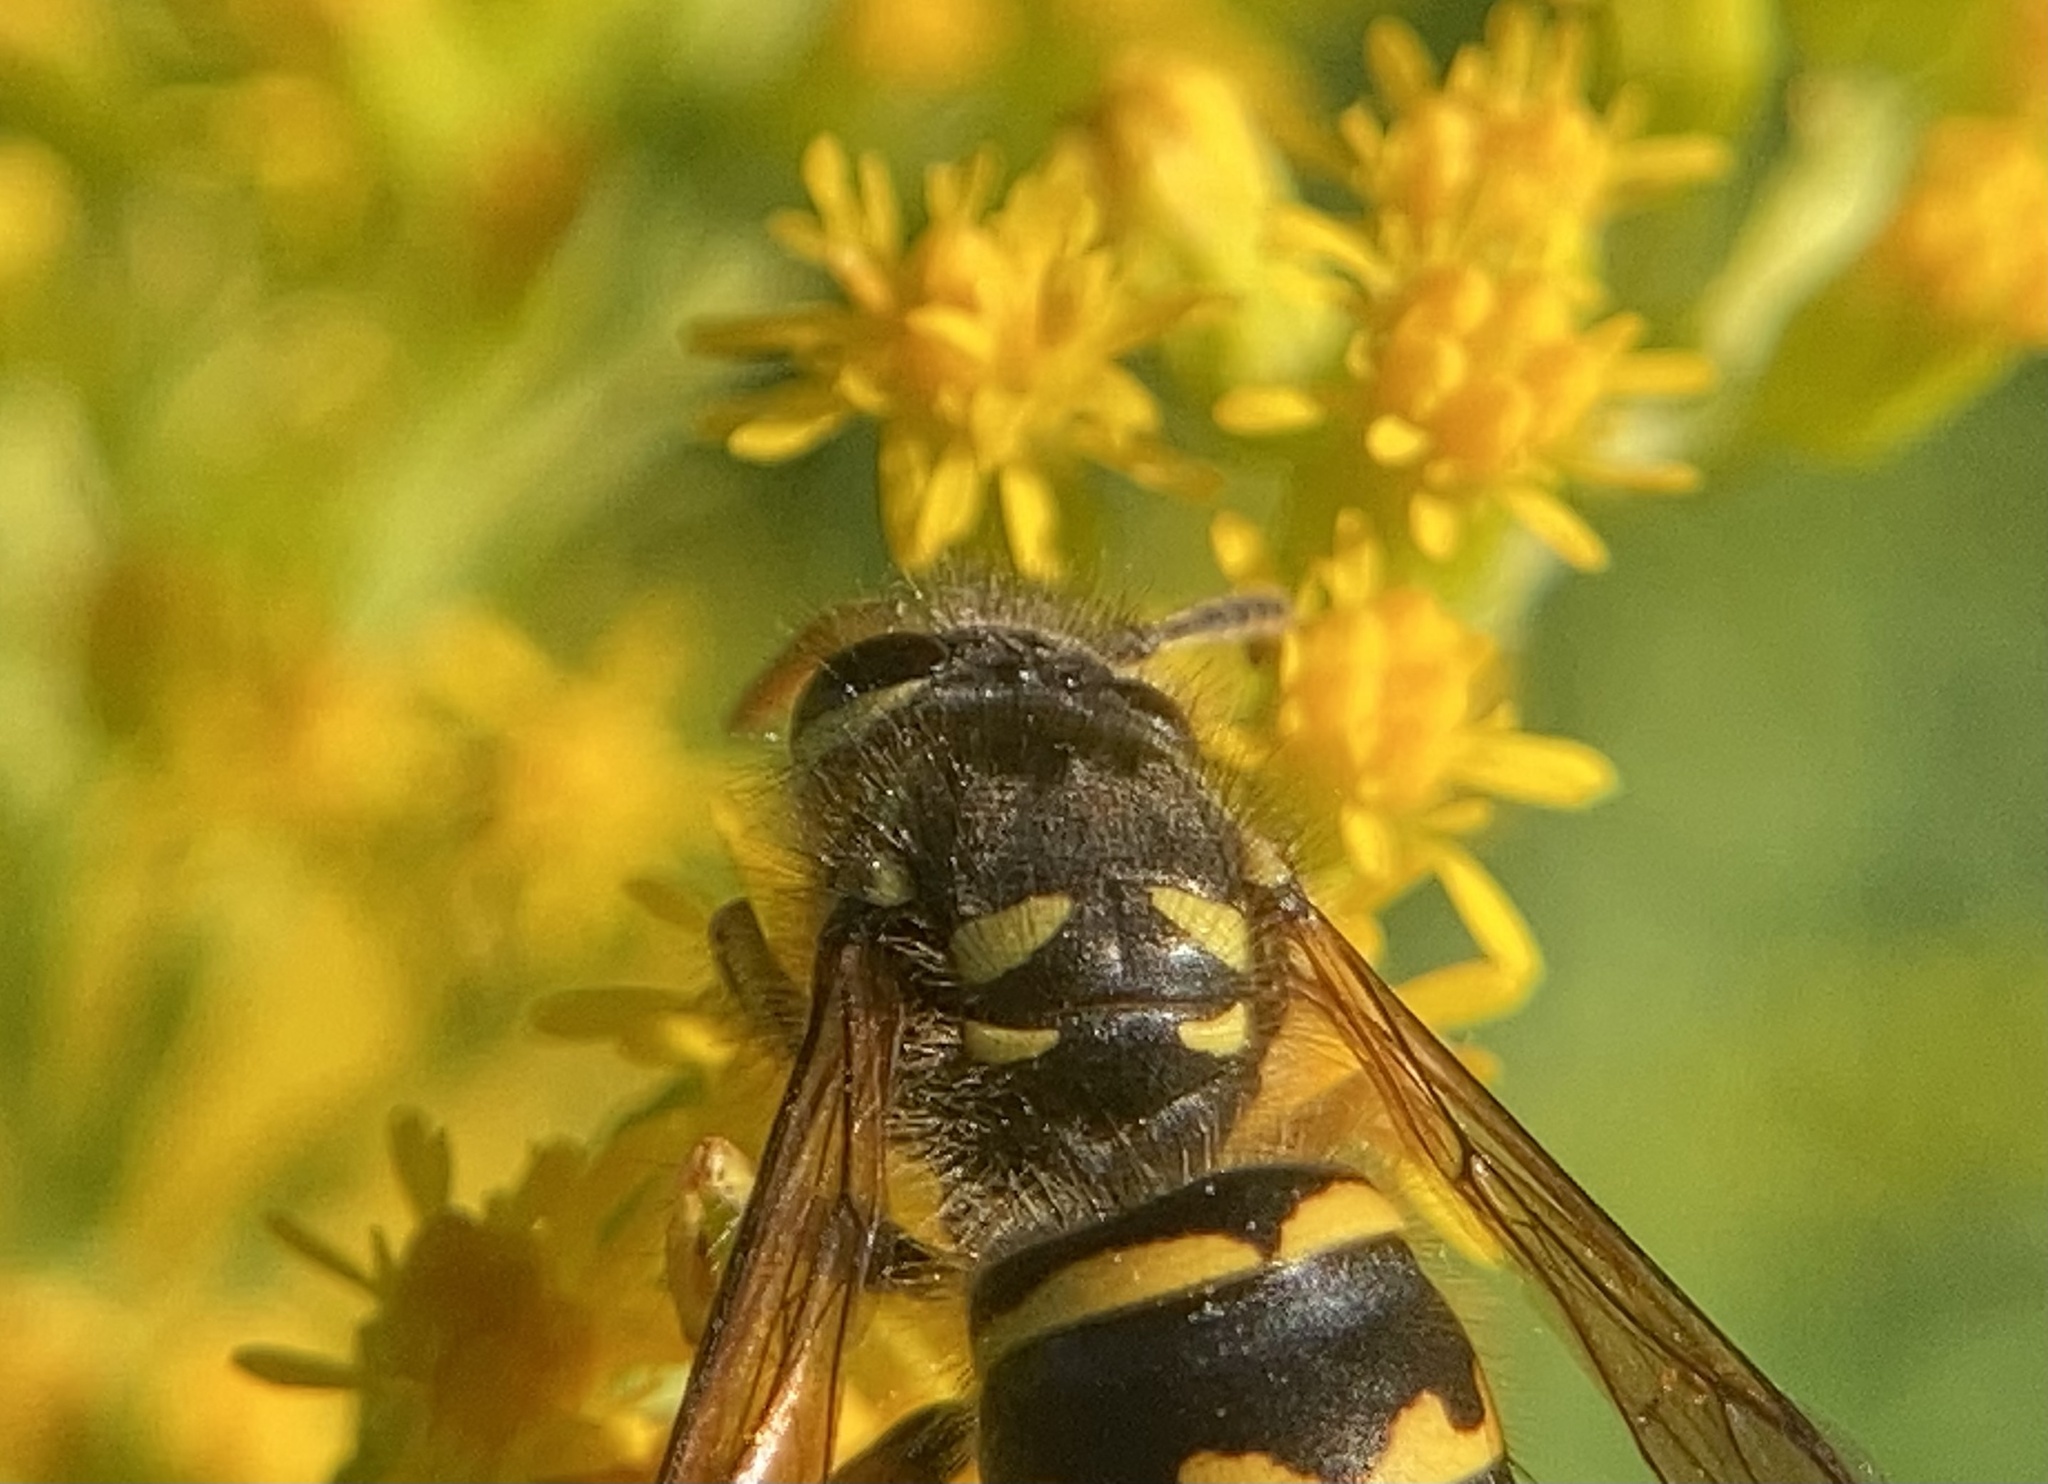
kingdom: Animalia
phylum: Arthropoda
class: Insecta
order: Hymenoptera
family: Vespidae
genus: Dolichovespula
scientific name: Dolichovespula arenaria
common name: Aerial yellowjacket
